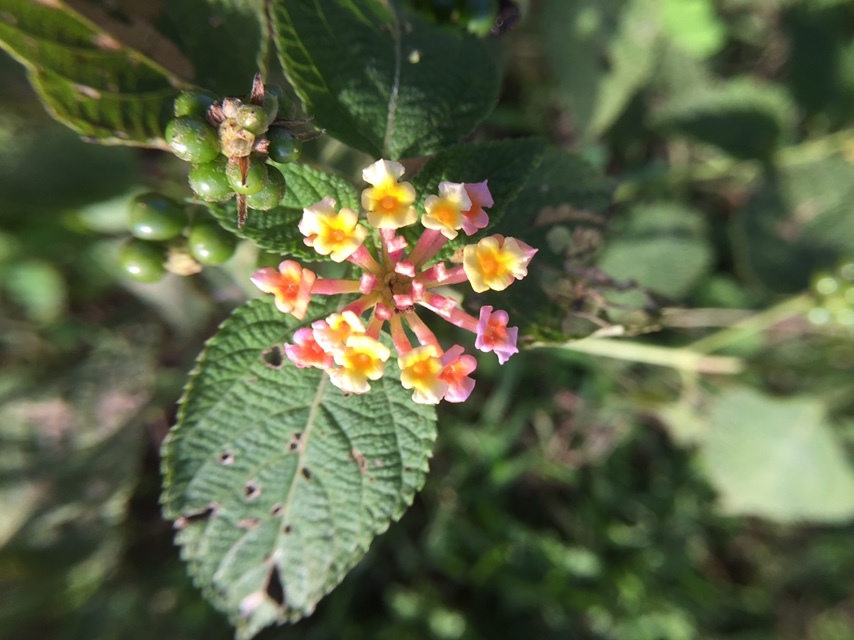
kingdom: Plantae
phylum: Tracheophyta
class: Magnoliopsida
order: Lamiales
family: Verbenaceae
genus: Lantana
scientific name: Lantana camara
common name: Lantana
